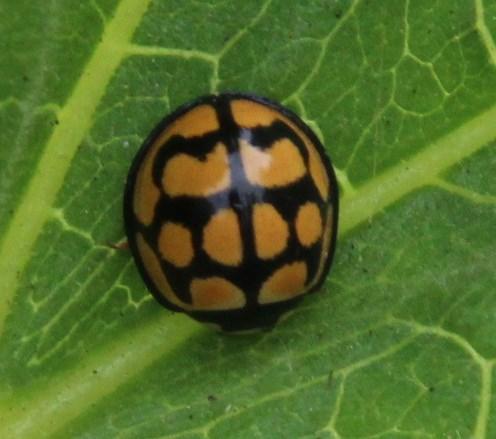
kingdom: Animalia
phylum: Arthropoda
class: Insecta
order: Coleoptera
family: Coccinellidae
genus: Cheilomenes
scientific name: Cheilomenes lunata
